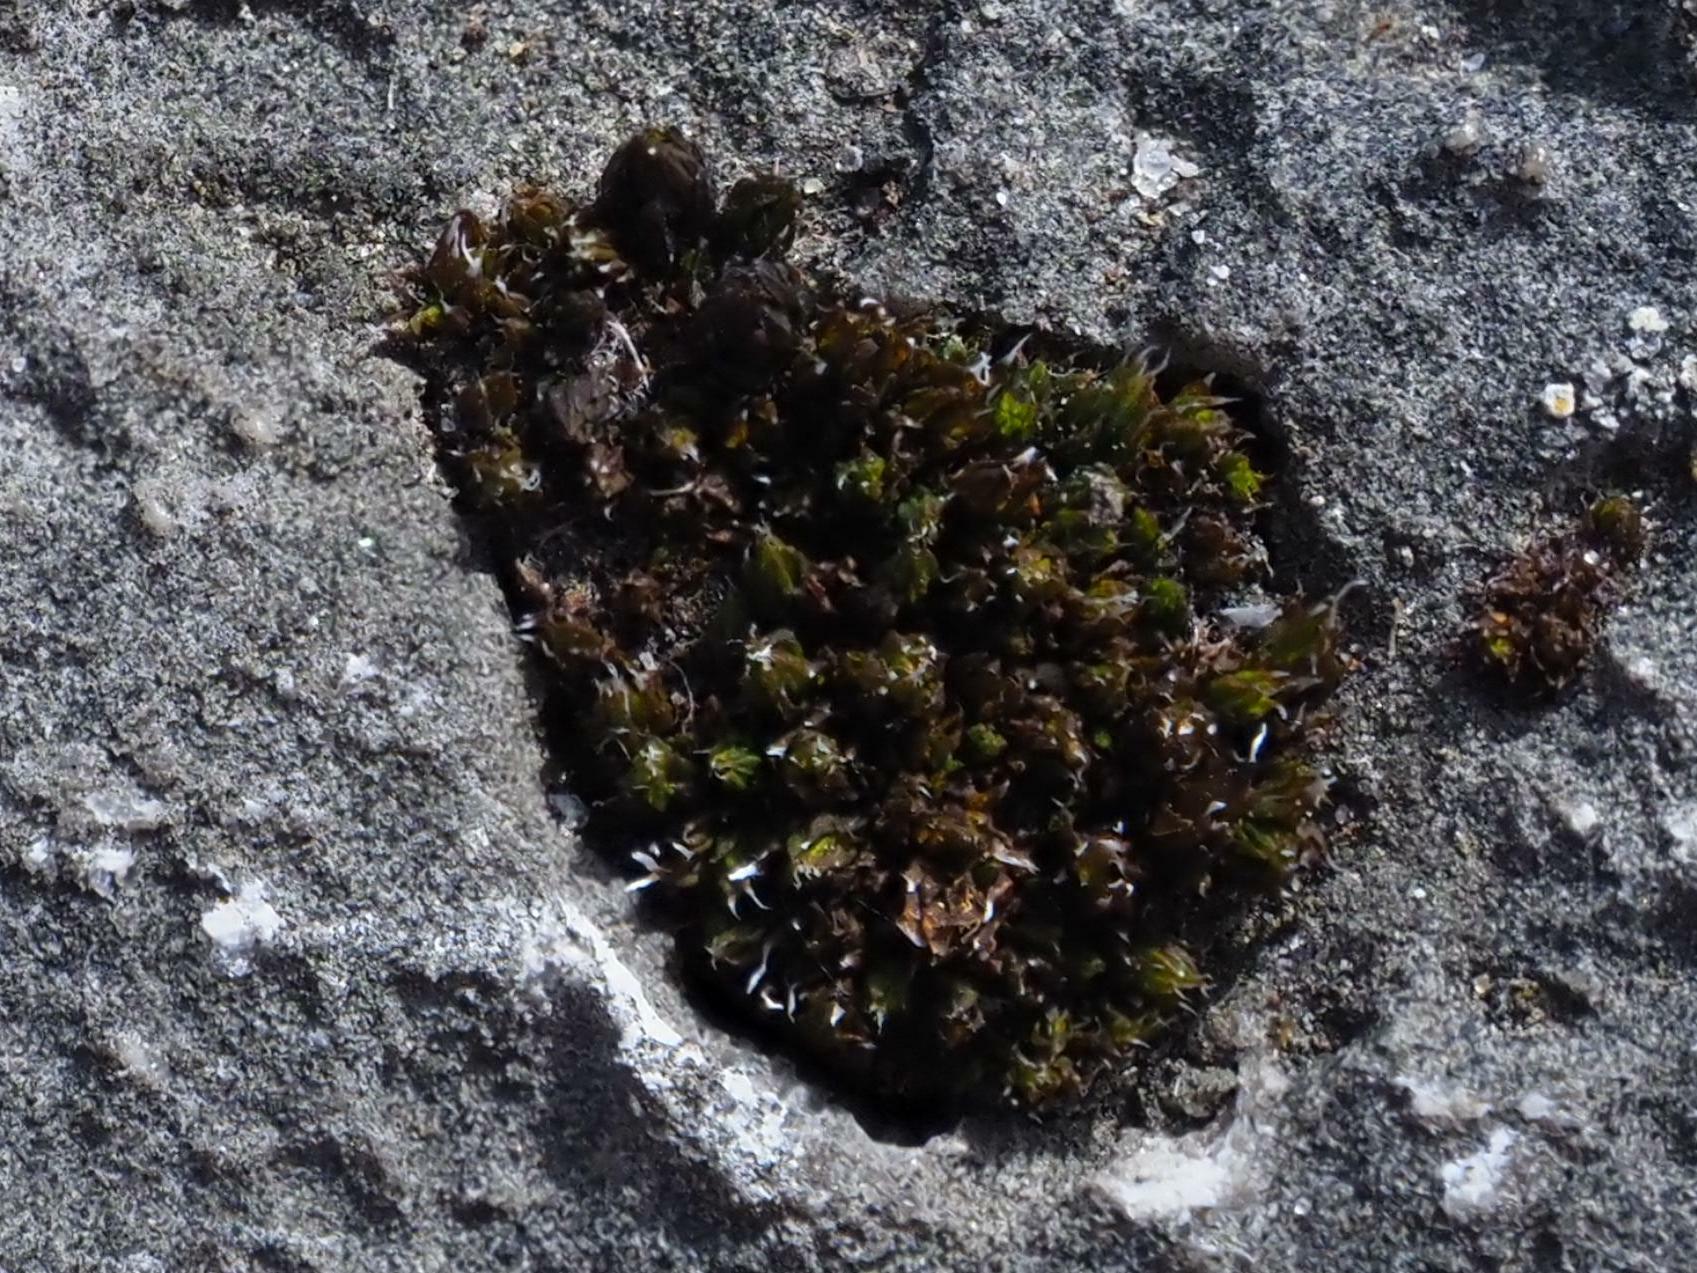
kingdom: Plantae
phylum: Bryophyta
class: Bryopsida
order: Orthotrichales
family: Orthotrichaceae
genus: Orthotrichum
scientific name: Orthotrichum anomalum
